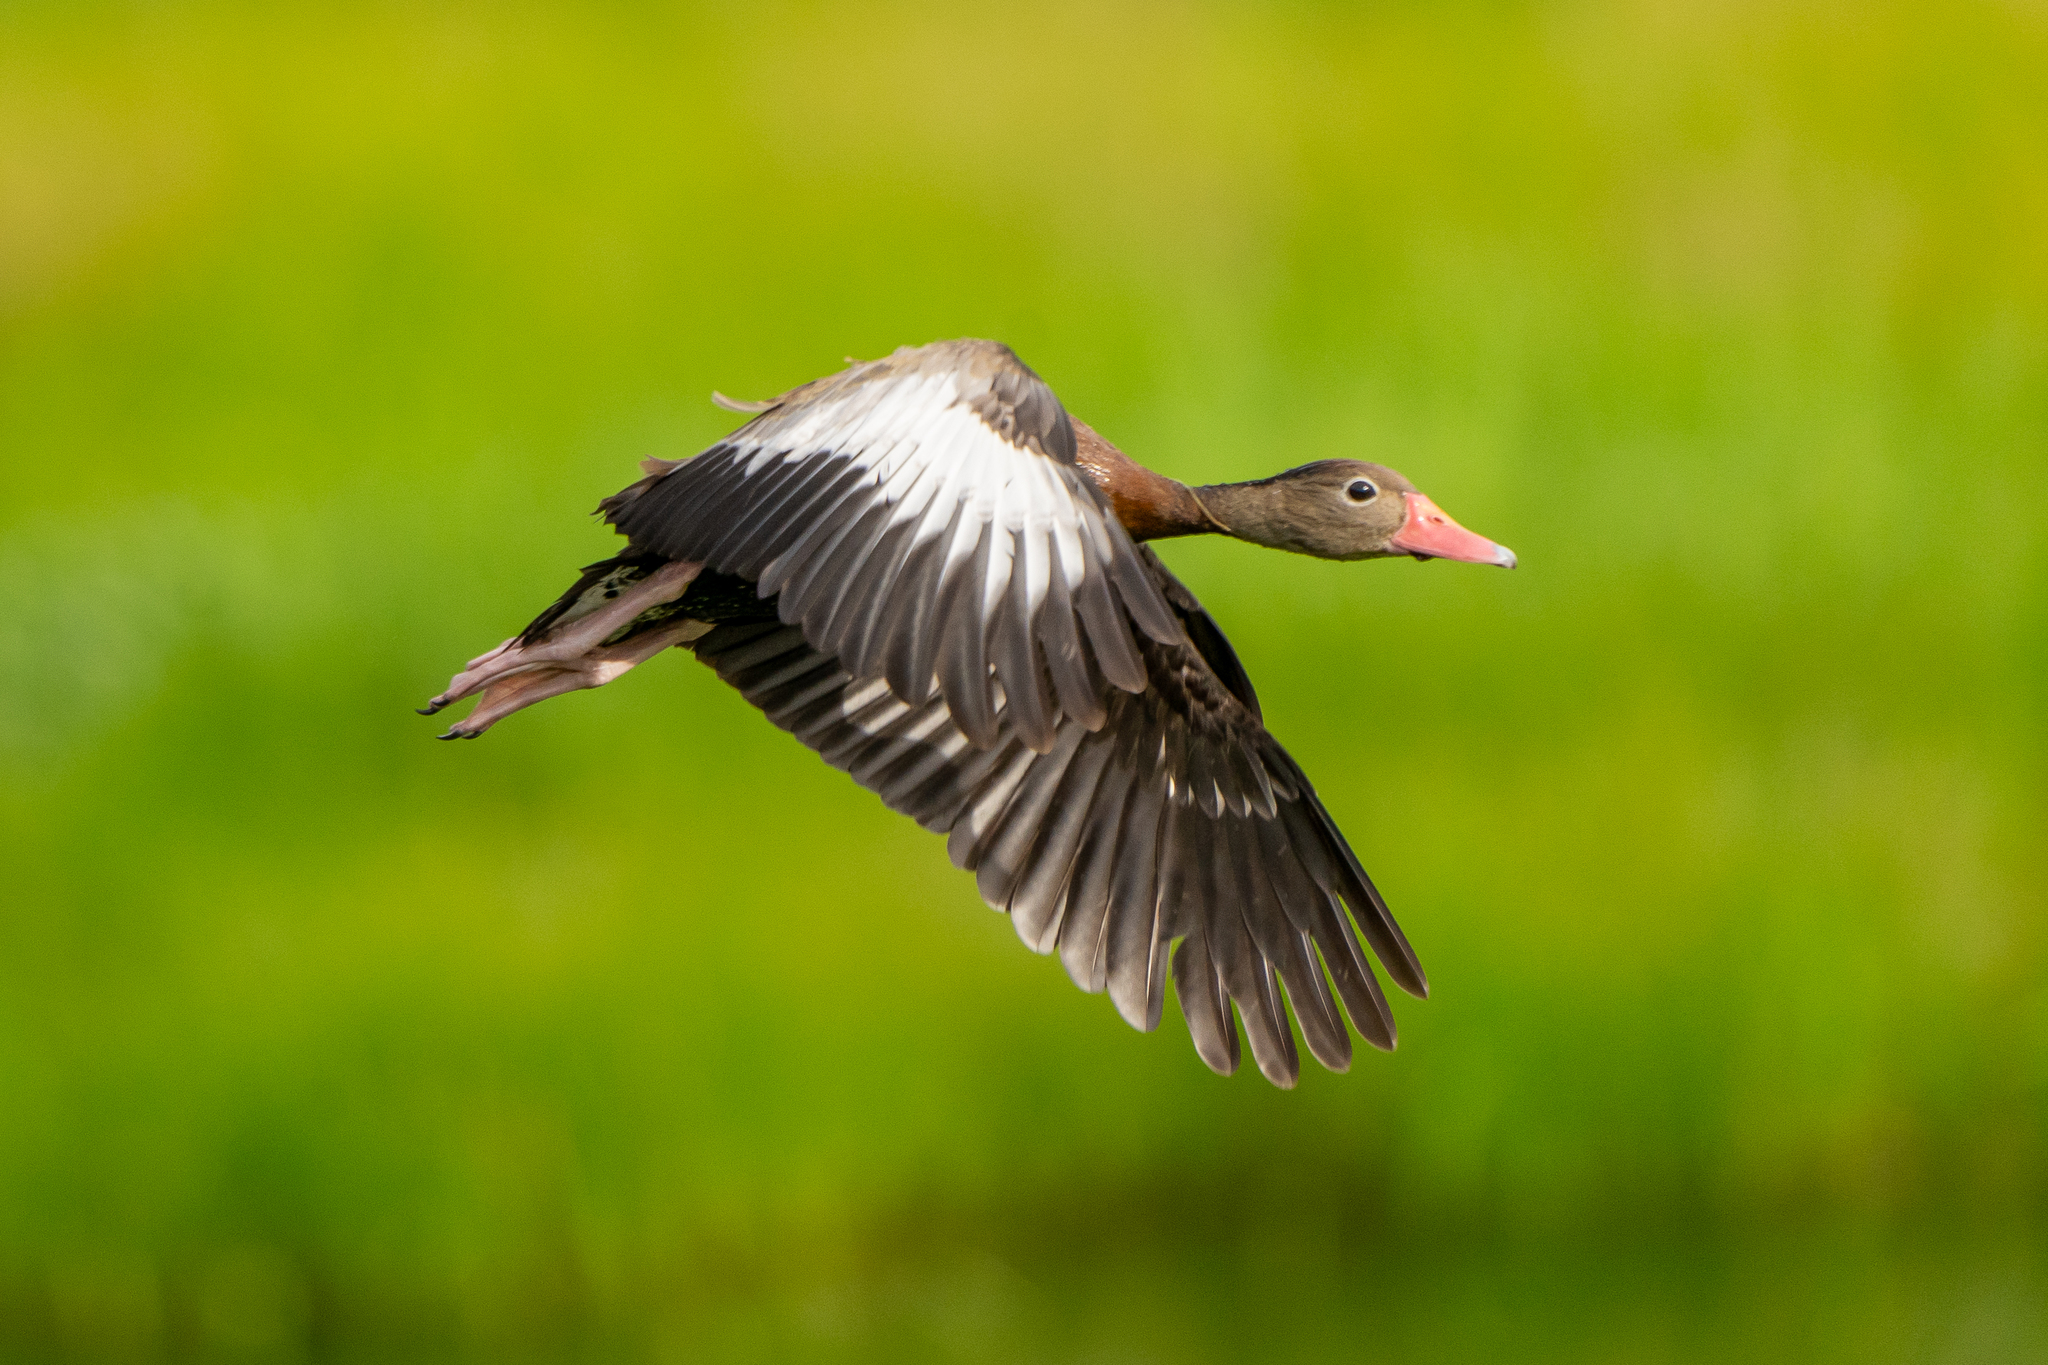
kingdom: Animalia
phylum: Chordata
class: Aves
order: Anseriformes
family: Anatidae
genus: Dendrocygna
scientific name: Dendrocygna autumnalis
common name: Black-bellied whistling duck
